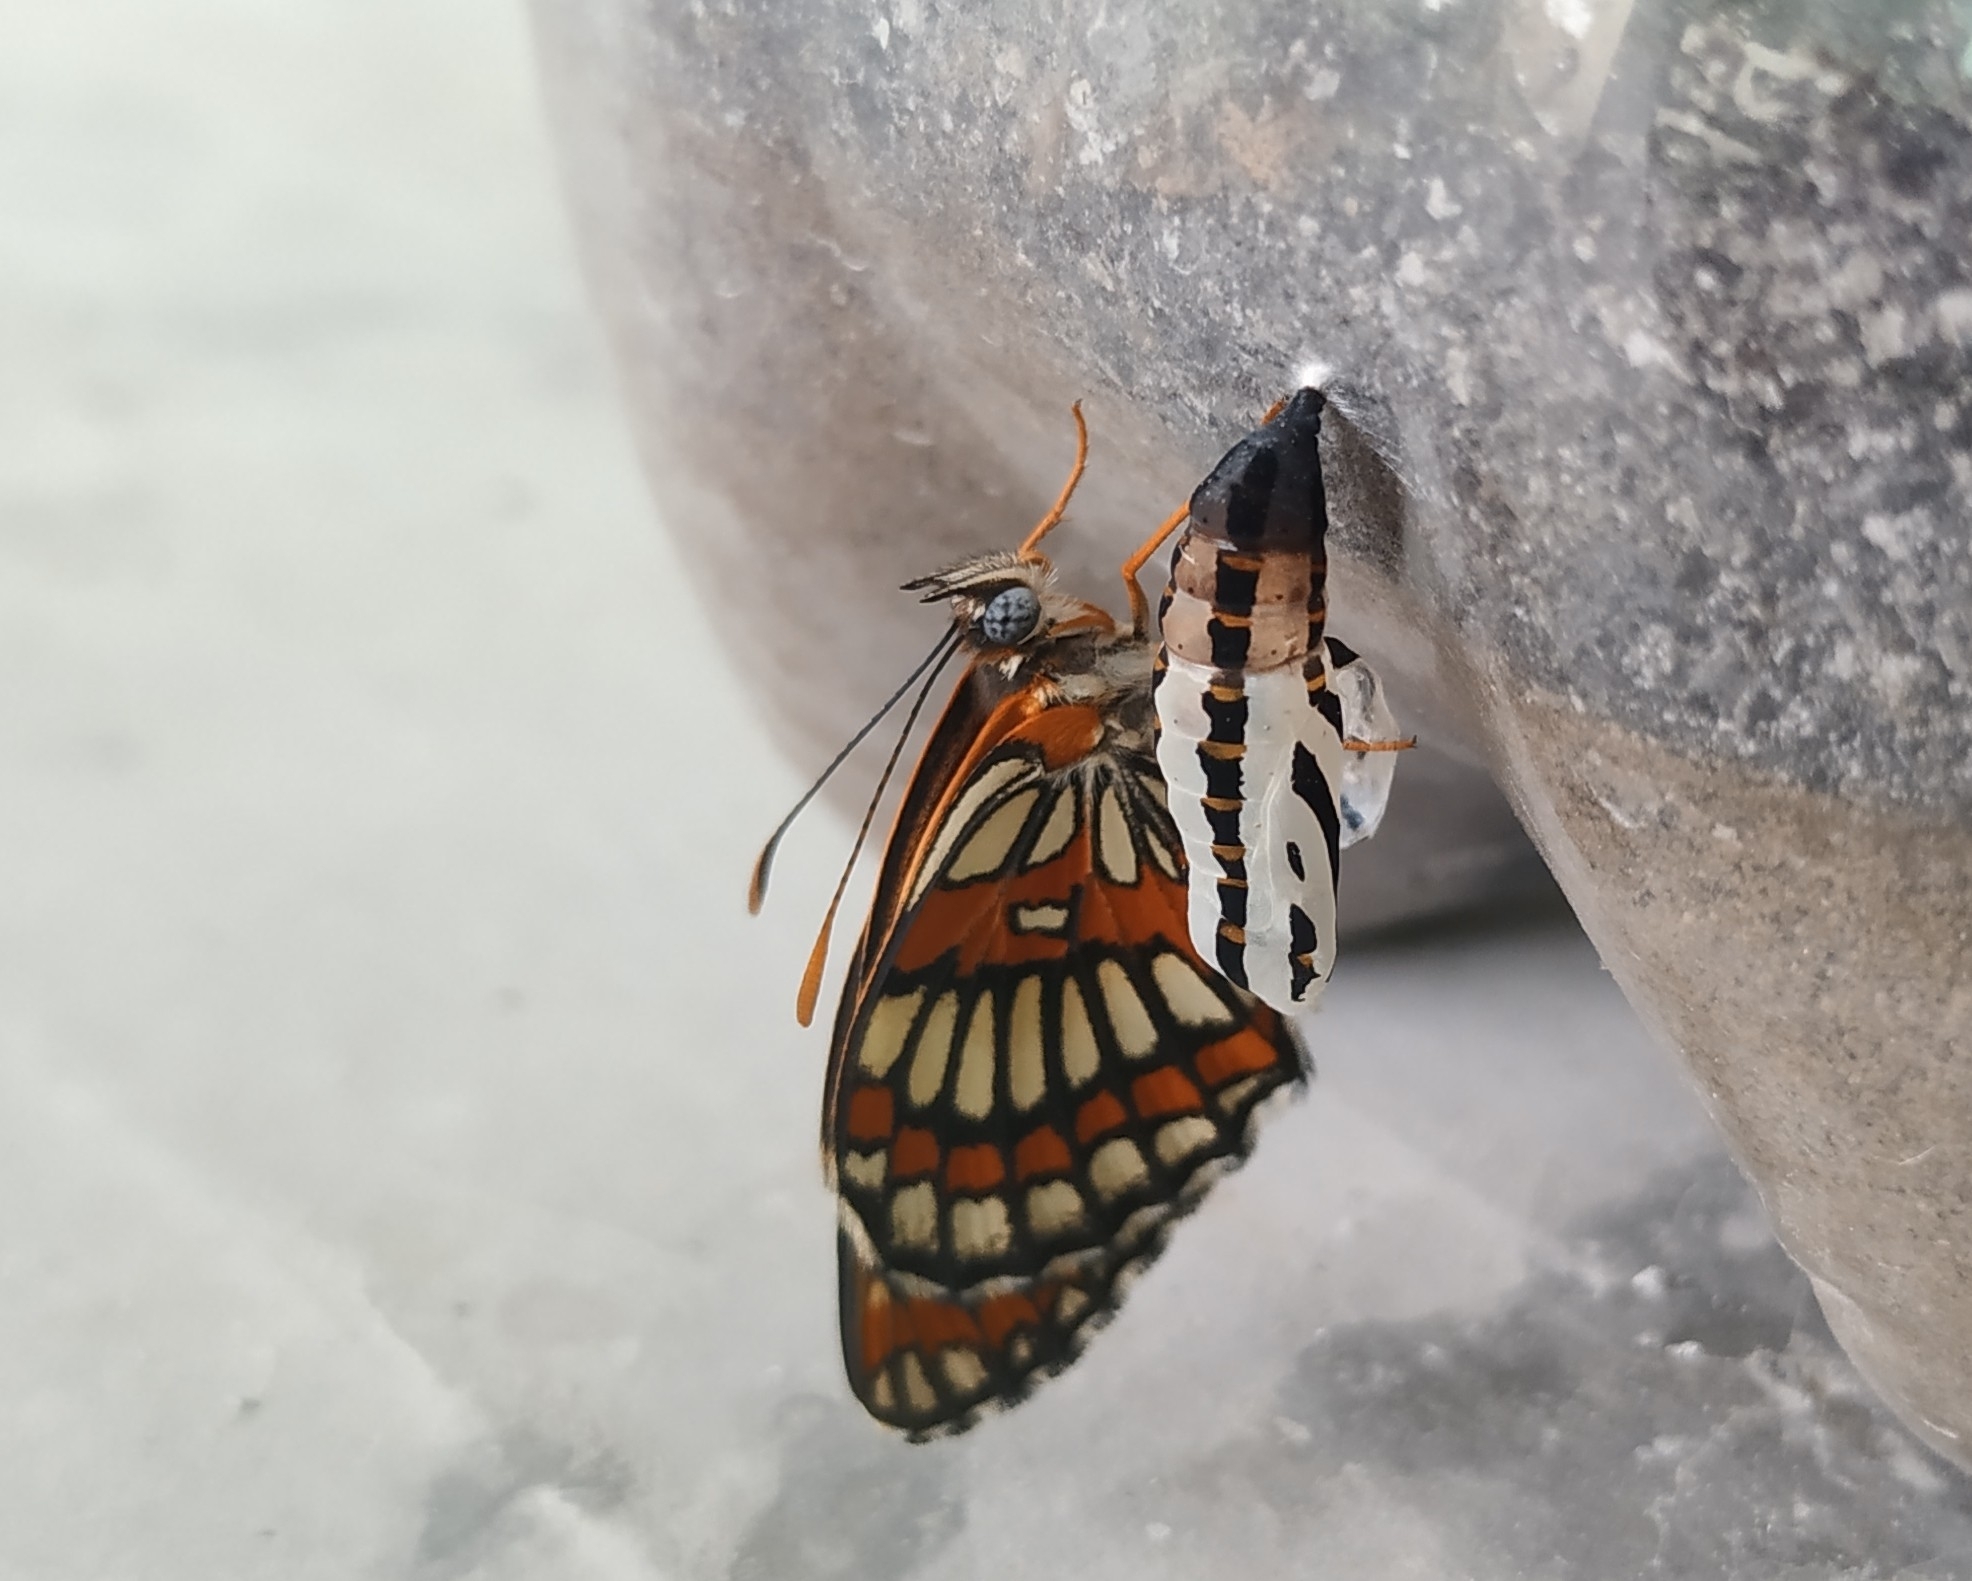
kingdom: Animalia
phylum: Arthropoda
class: Insecta
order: Lepidoptera
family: Nymphalidae
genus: Thessalia
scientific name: Thessalia theona
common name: Nymphalid moth
